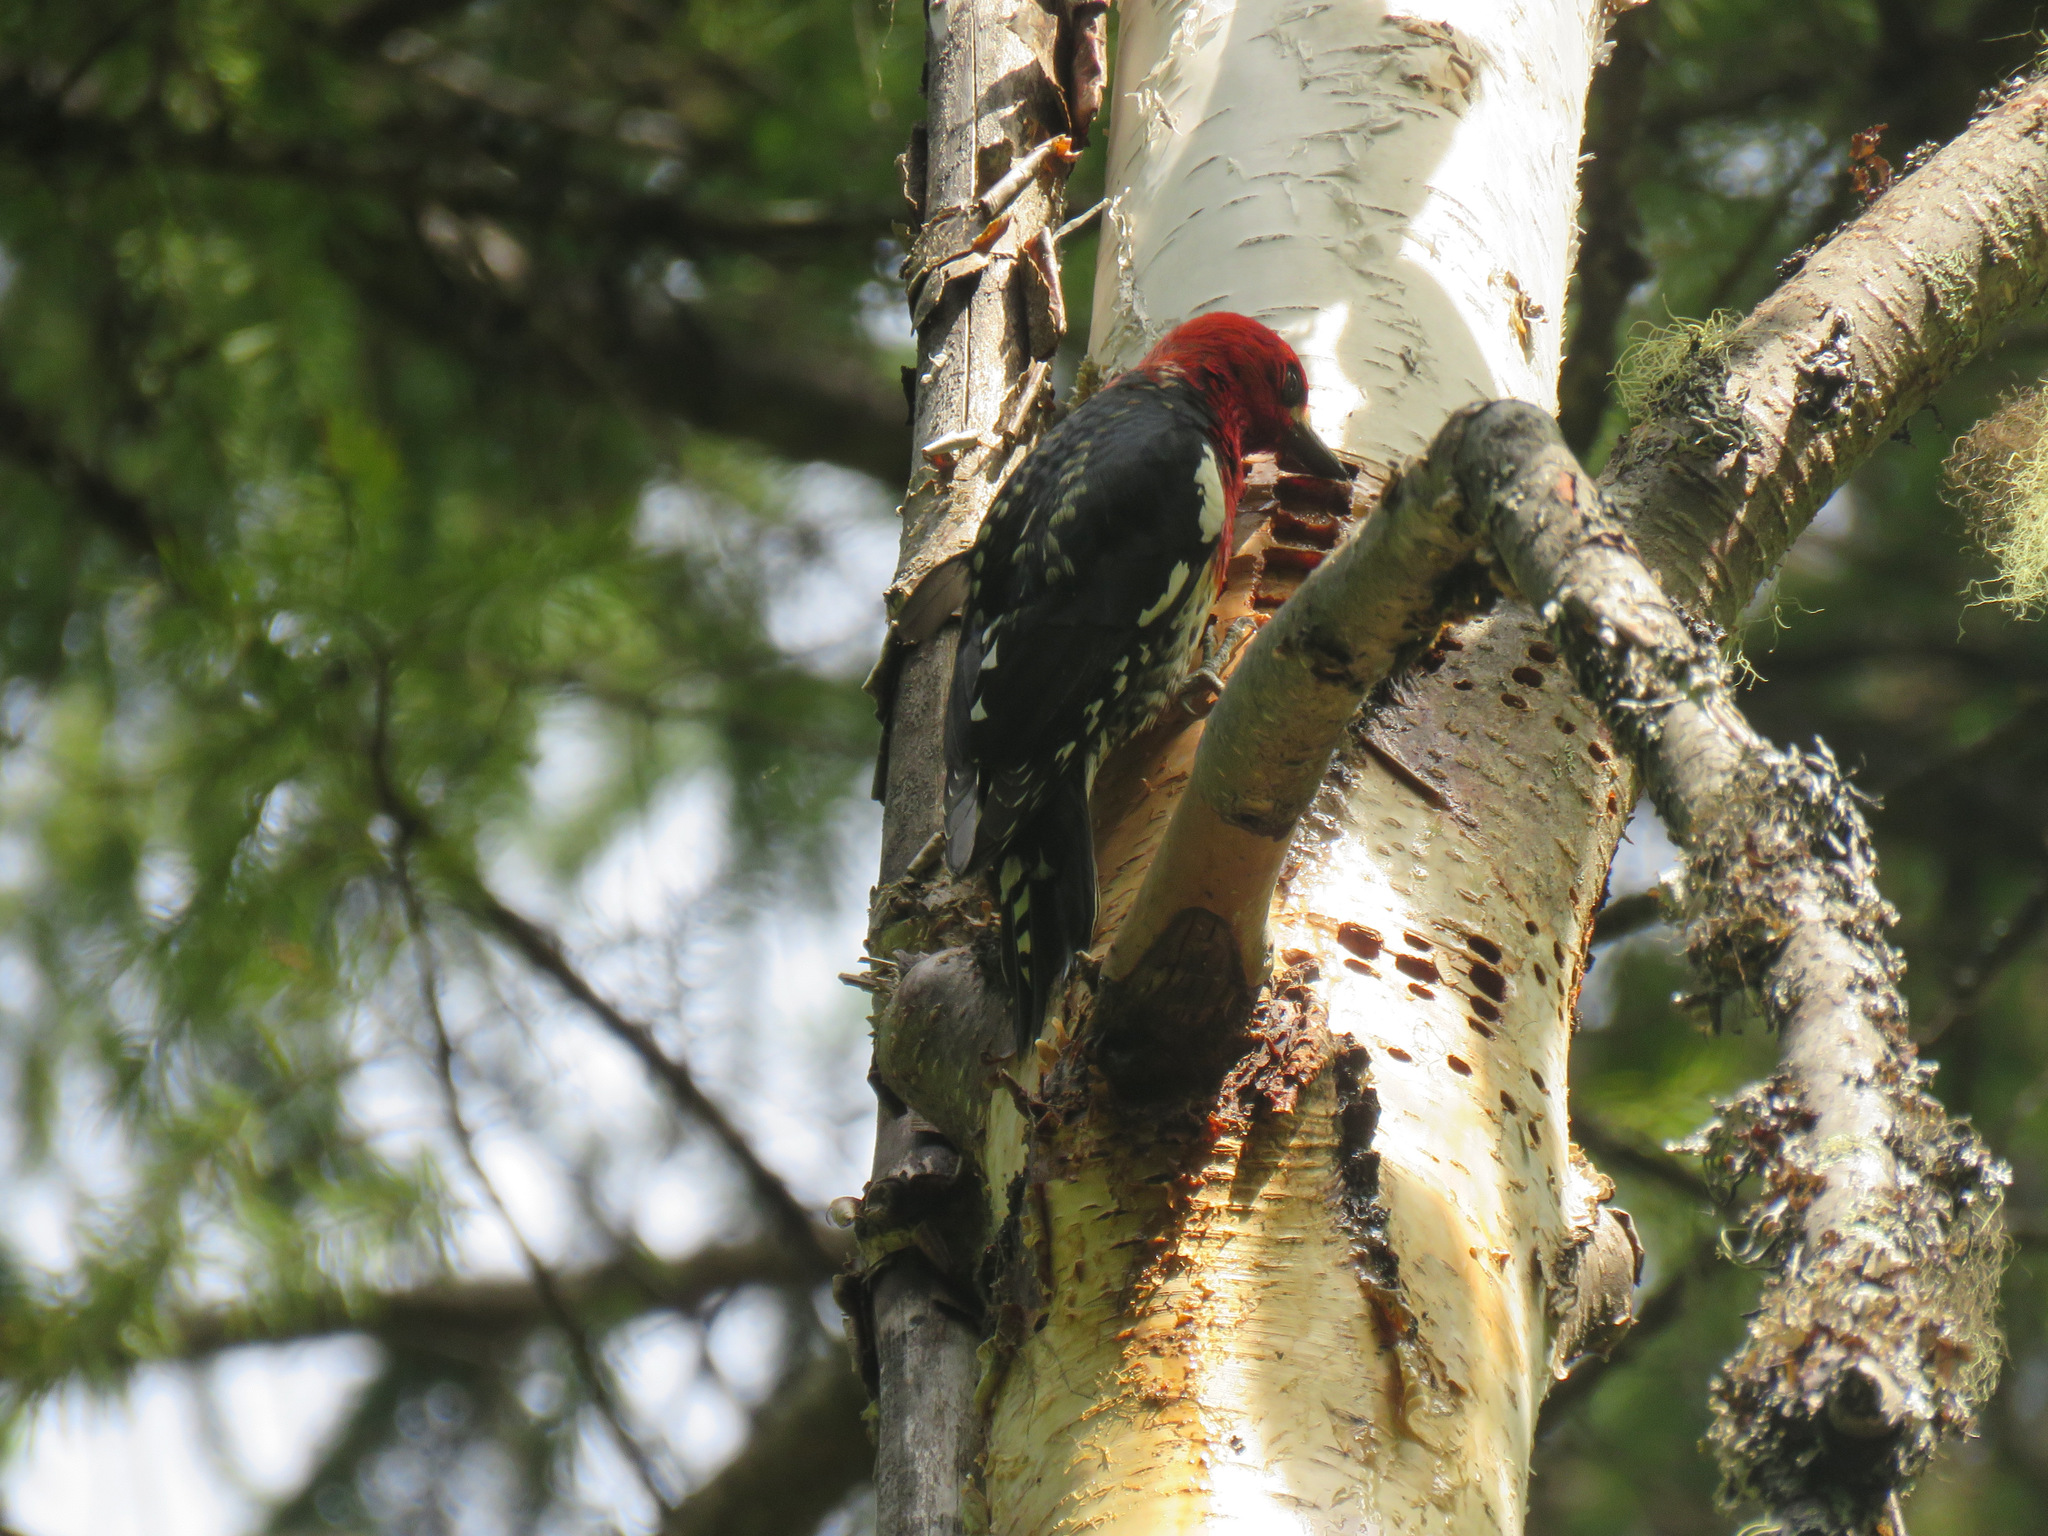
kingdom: Animalia
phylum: Chordata
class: Aves
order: Piciformes
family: Picidae
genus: Sphyrapicus
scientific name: Sphyrapicus ruber
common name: Red-breasted sapsucker
